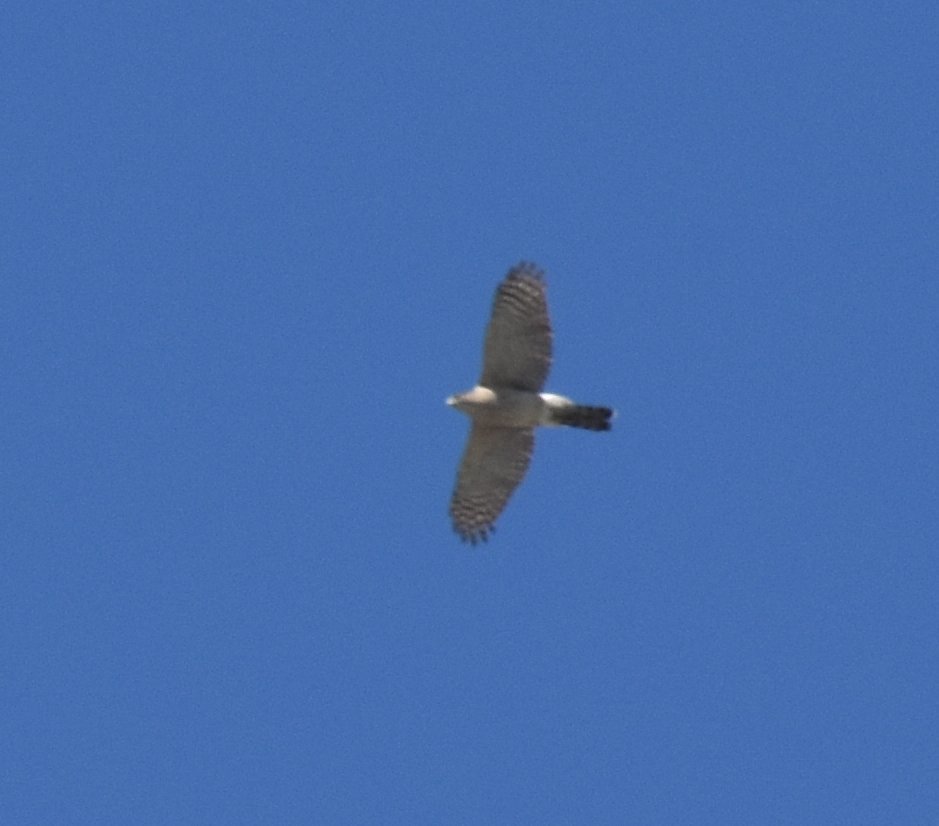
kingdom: Animalia
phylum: Chordata
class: Aves
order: Accipitriformes
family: Accipitridae
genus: Accipiter
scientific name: Accipiter cooperii
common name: Cooper's hawk
